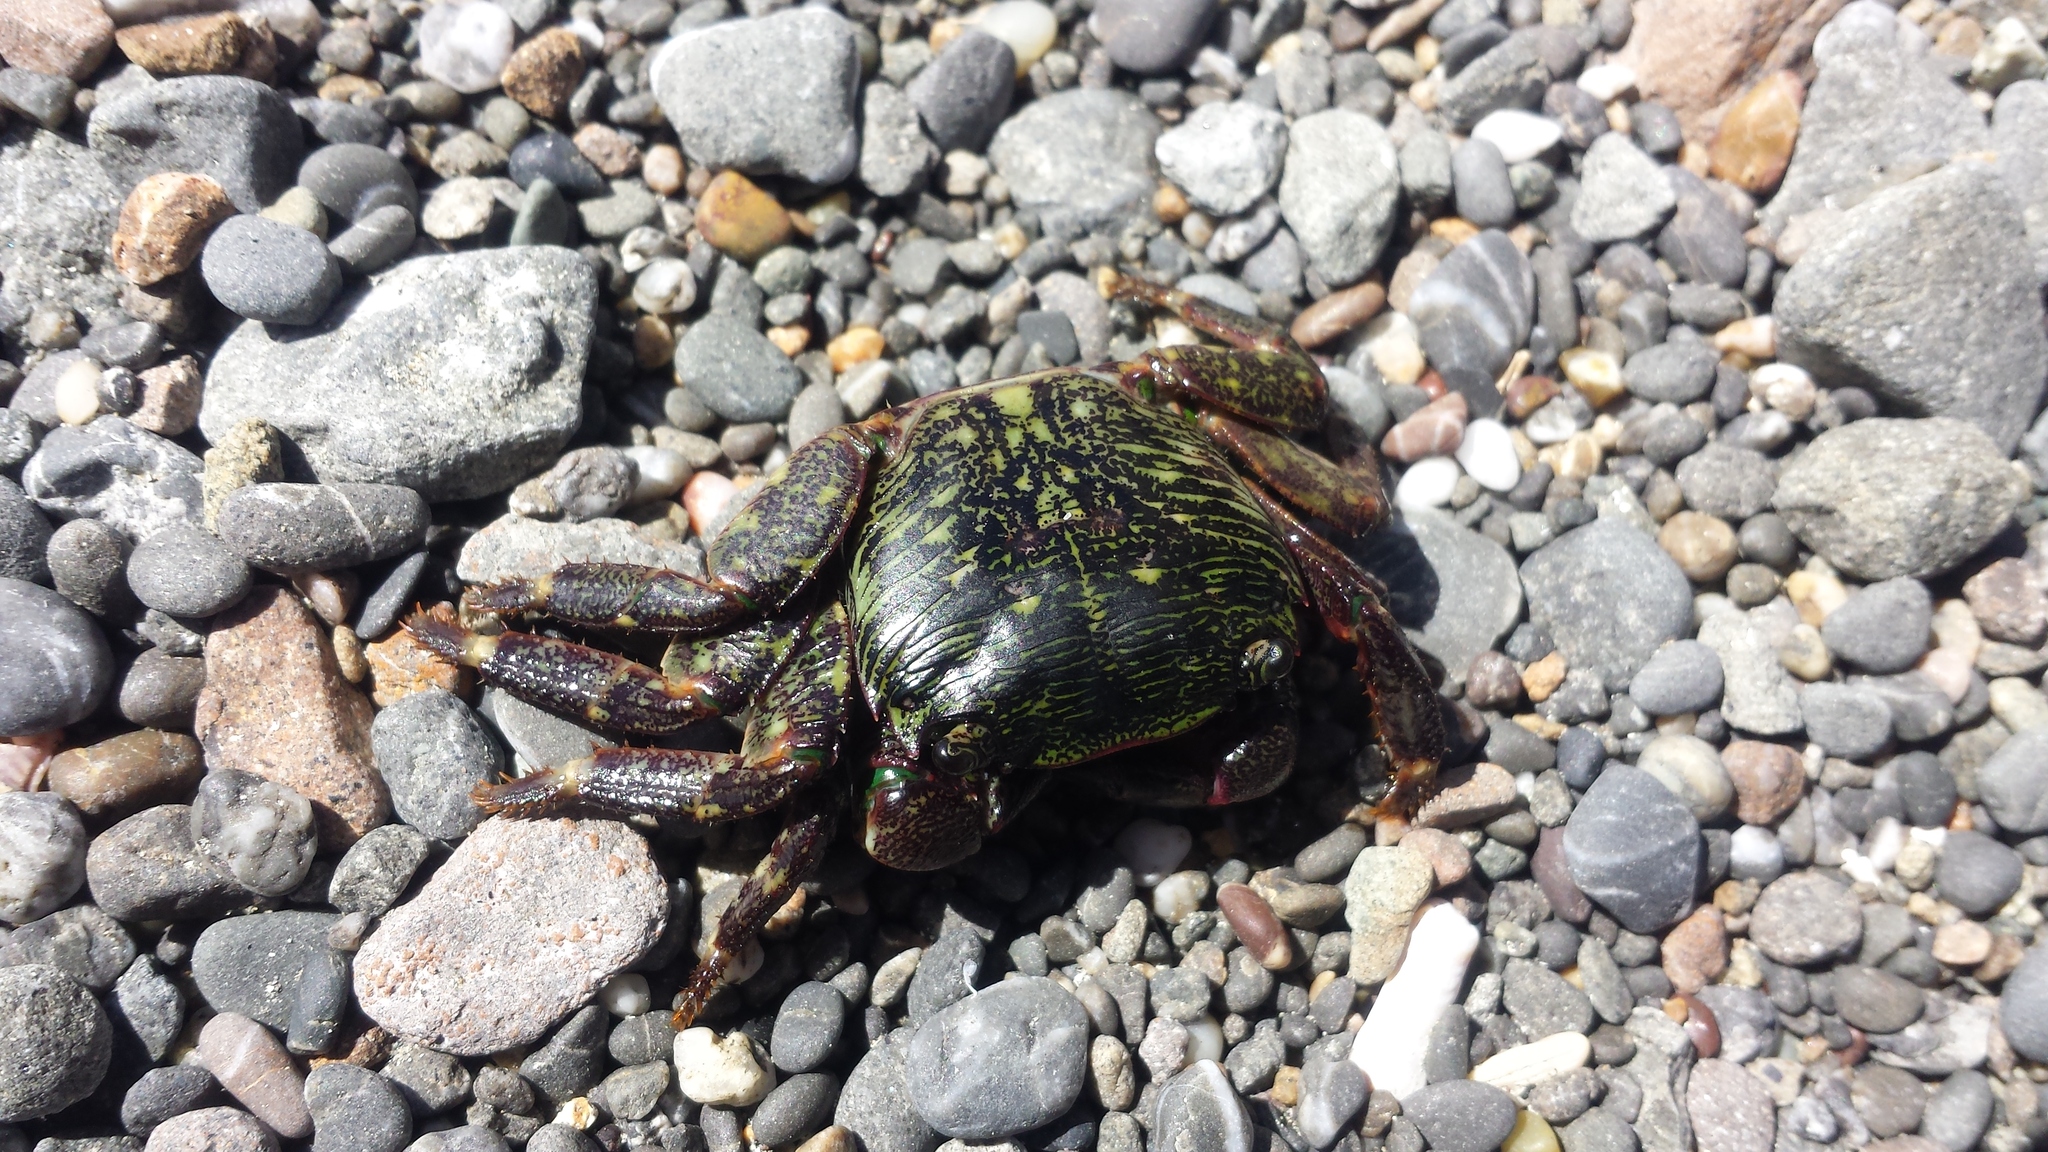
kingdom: Animalia
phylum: Arthropoda
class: Malacostraca
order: Decapoda
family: Grapsidae
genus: Pachygrapsus
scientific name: Pachygrapsus crassipes
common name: Striped shore crab
